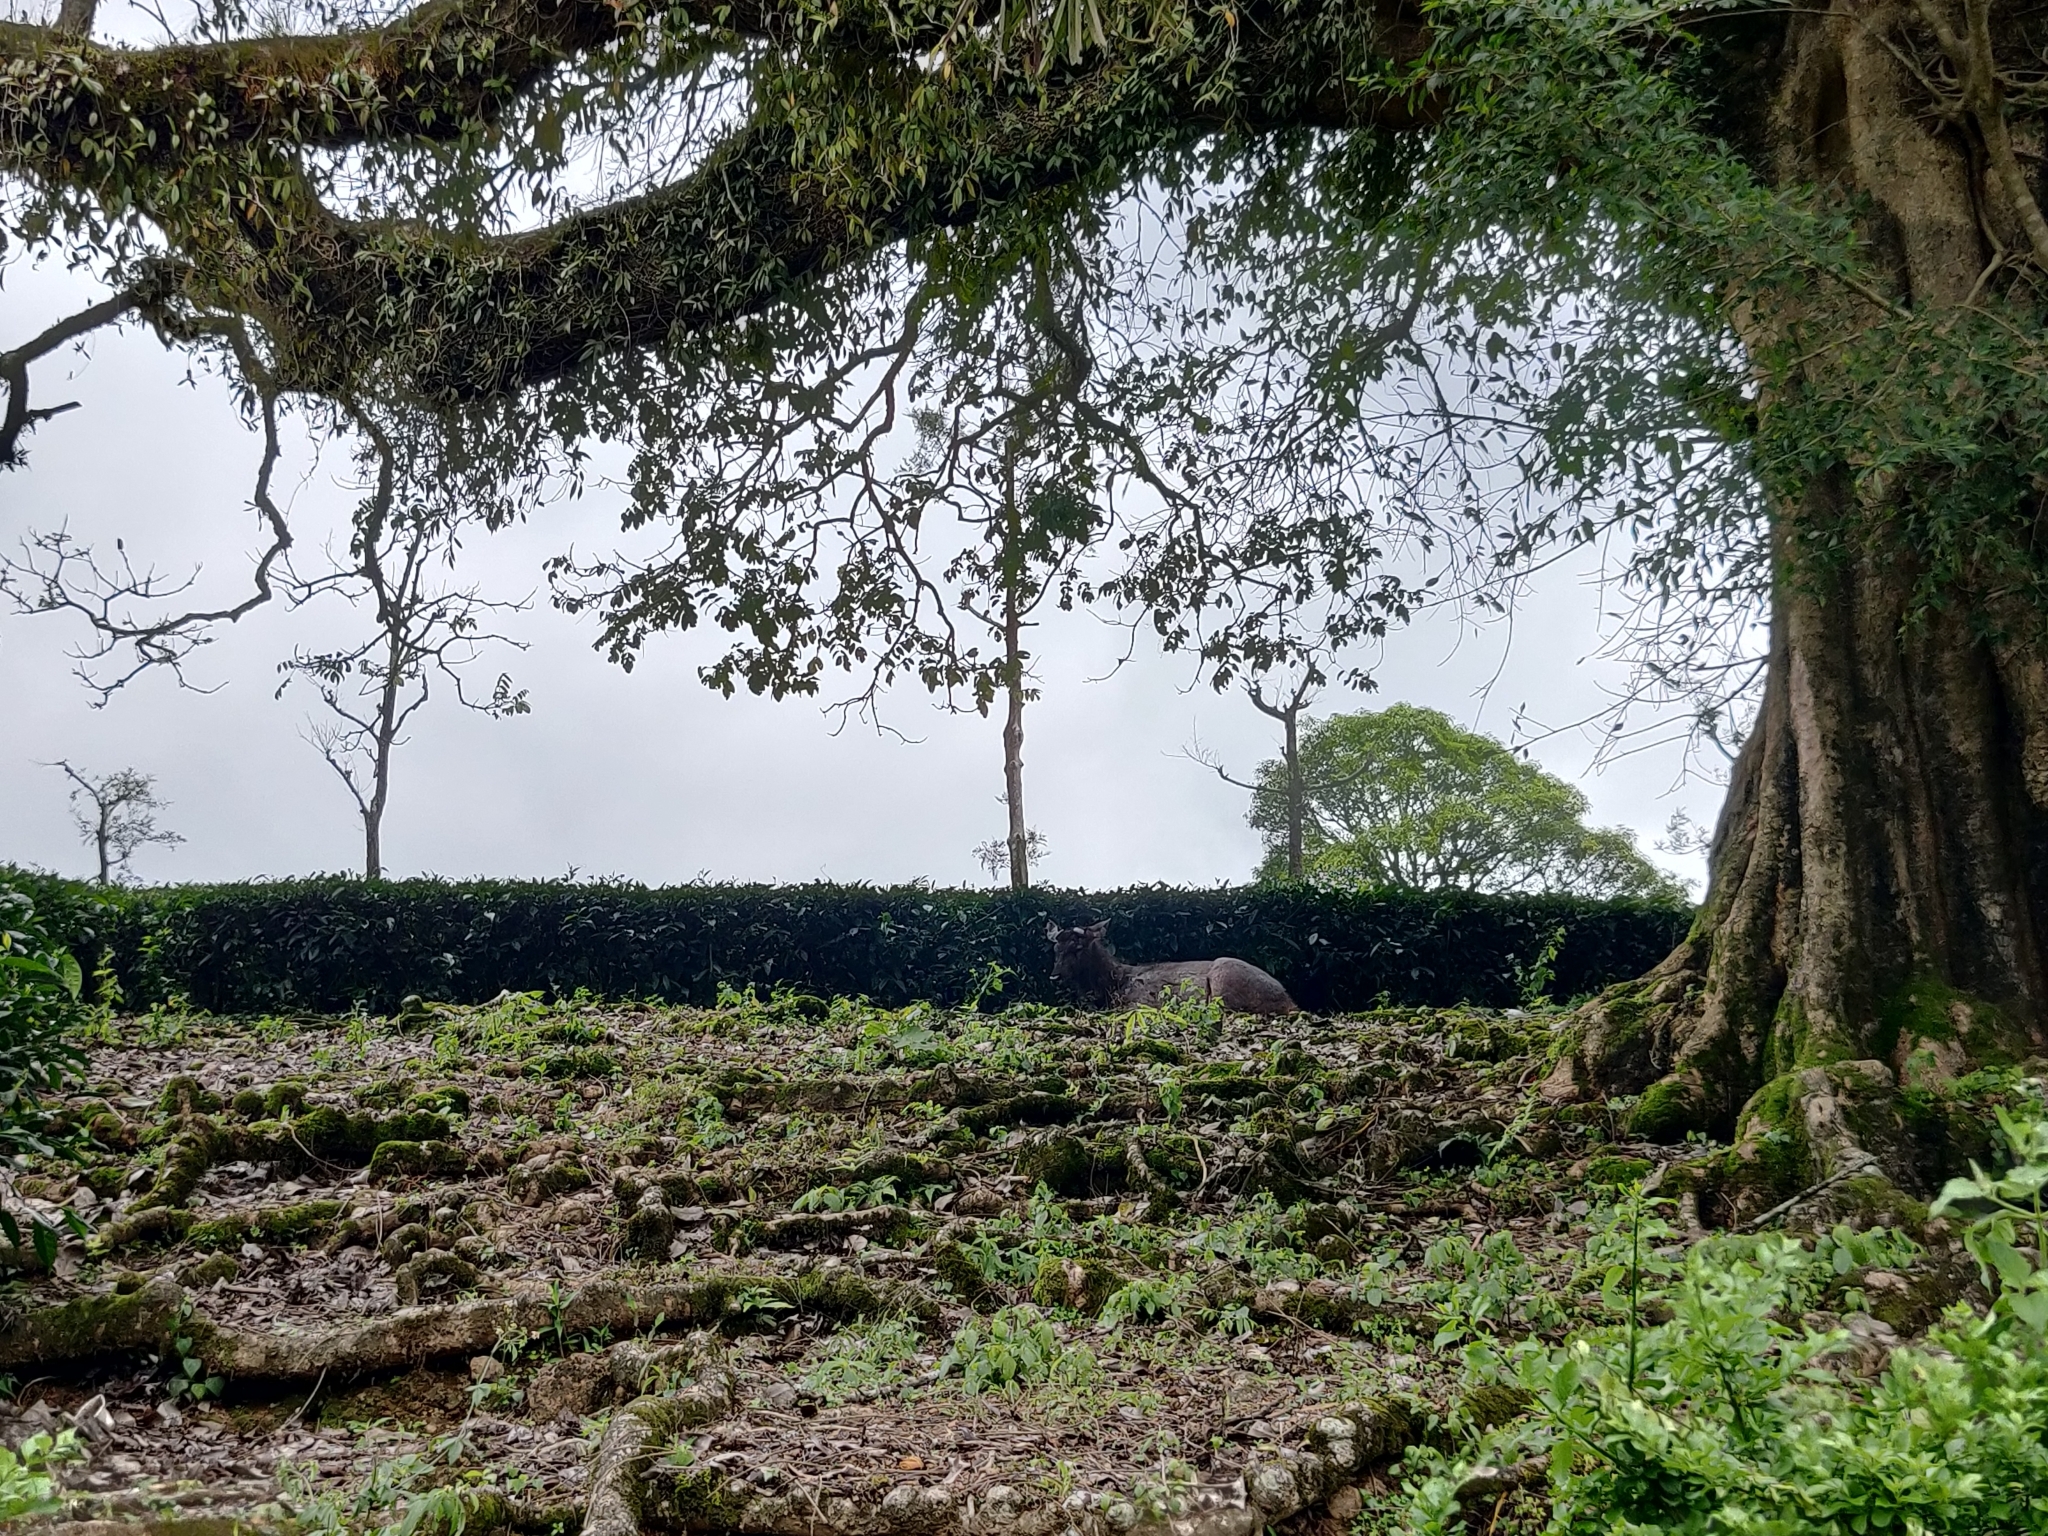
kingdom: Animalia
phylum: Chordata
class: Mammalia
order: Artiodactyla
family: Cervidae
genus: Rusa
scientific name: Rusa unicolor
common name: Sambar
